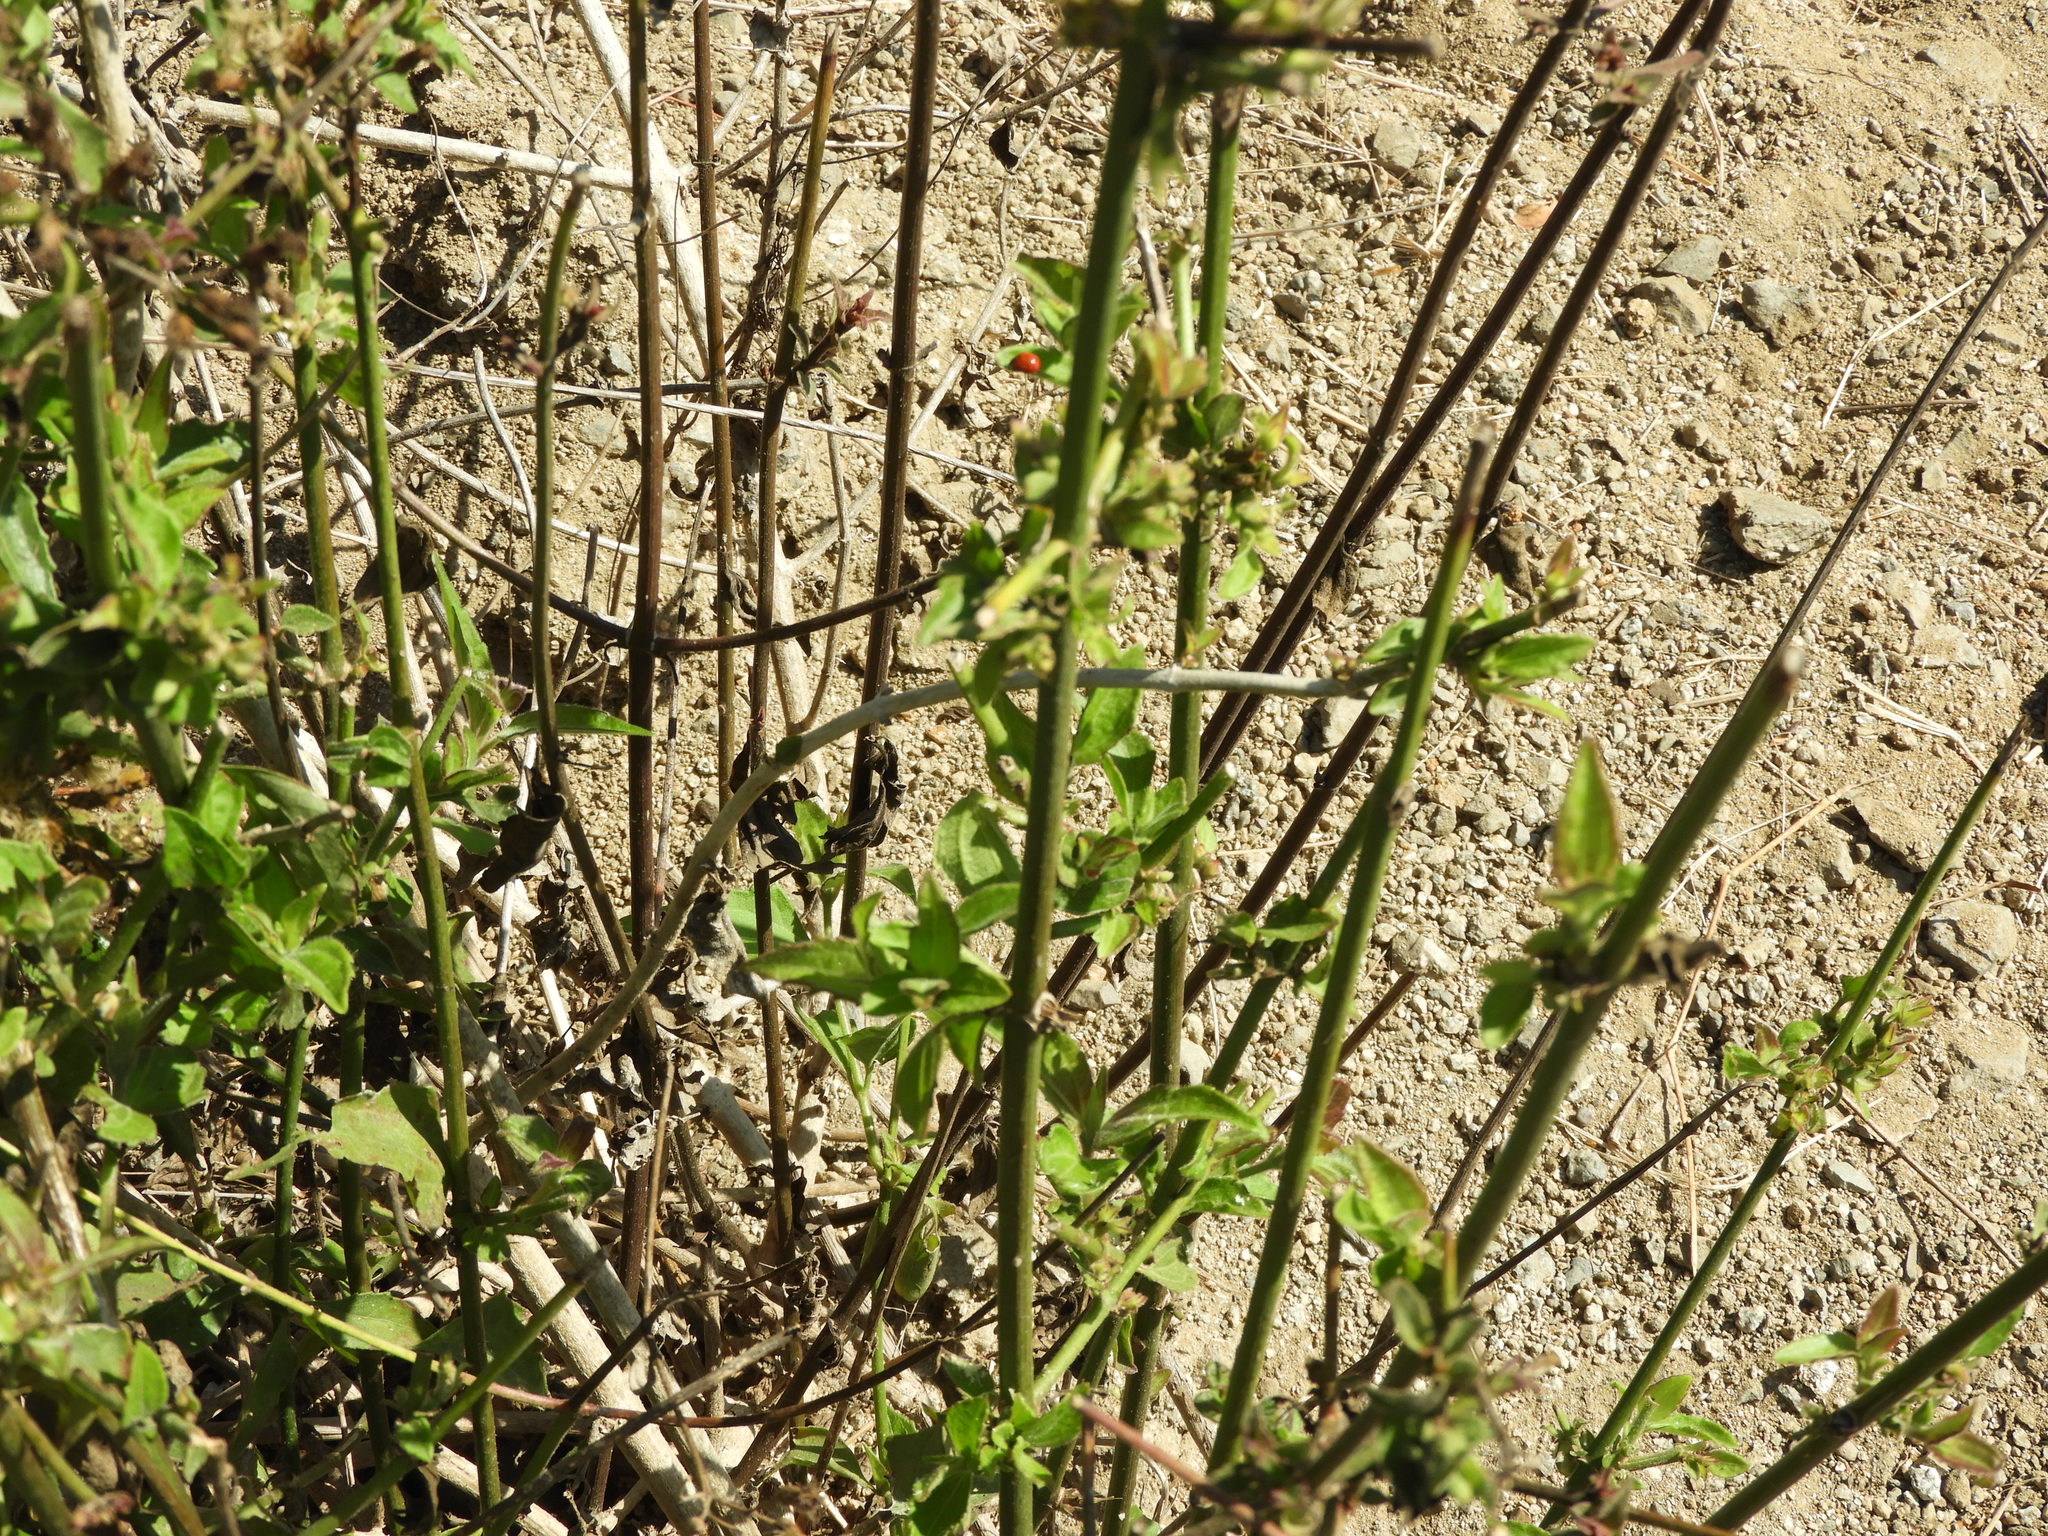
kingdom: Plantae
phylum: Tracheophyta
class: Magnoliopsida
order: Asterales
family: Asteraceae
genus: Chromolaena
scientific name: Chromolaena odorata
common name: Siamweed
